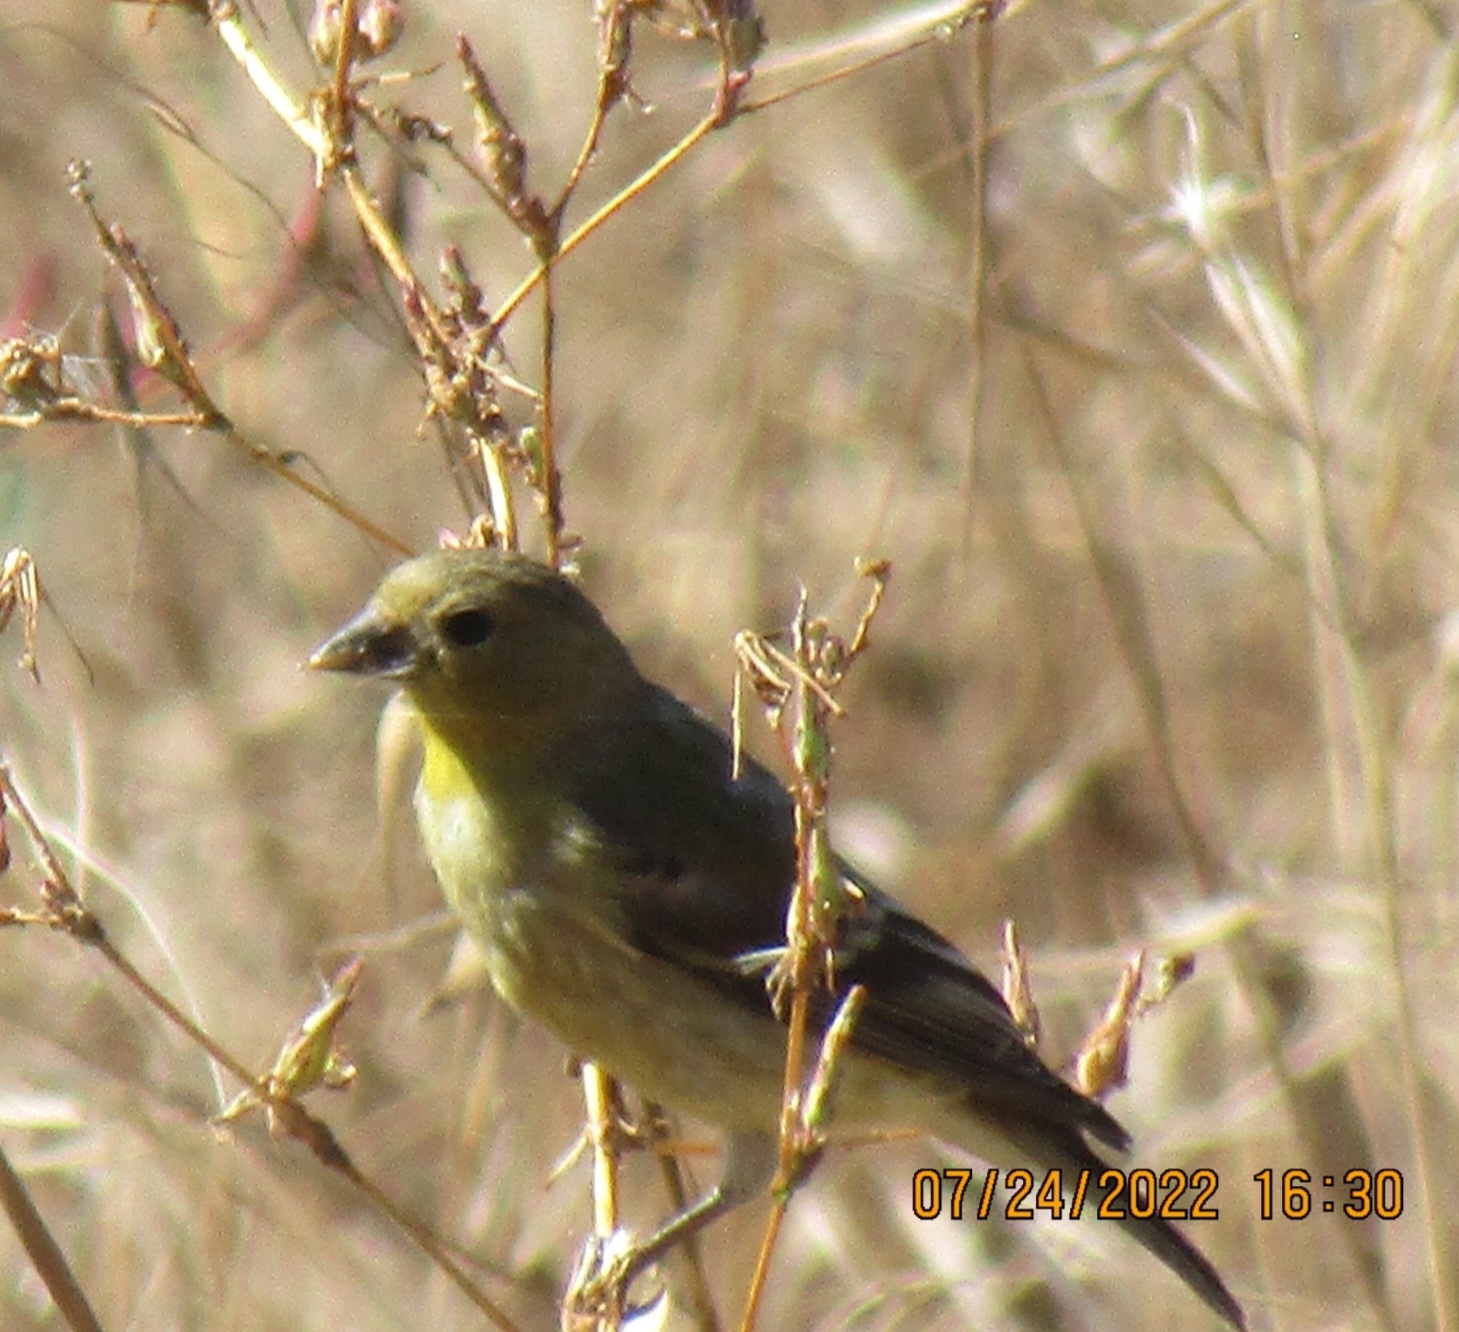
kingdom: Animalia
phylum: Chordata
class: Aves
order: Passeriformes
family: Fringillidae
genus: Spinus
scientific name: Spinus psaltria
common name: Lesser goldfinch
